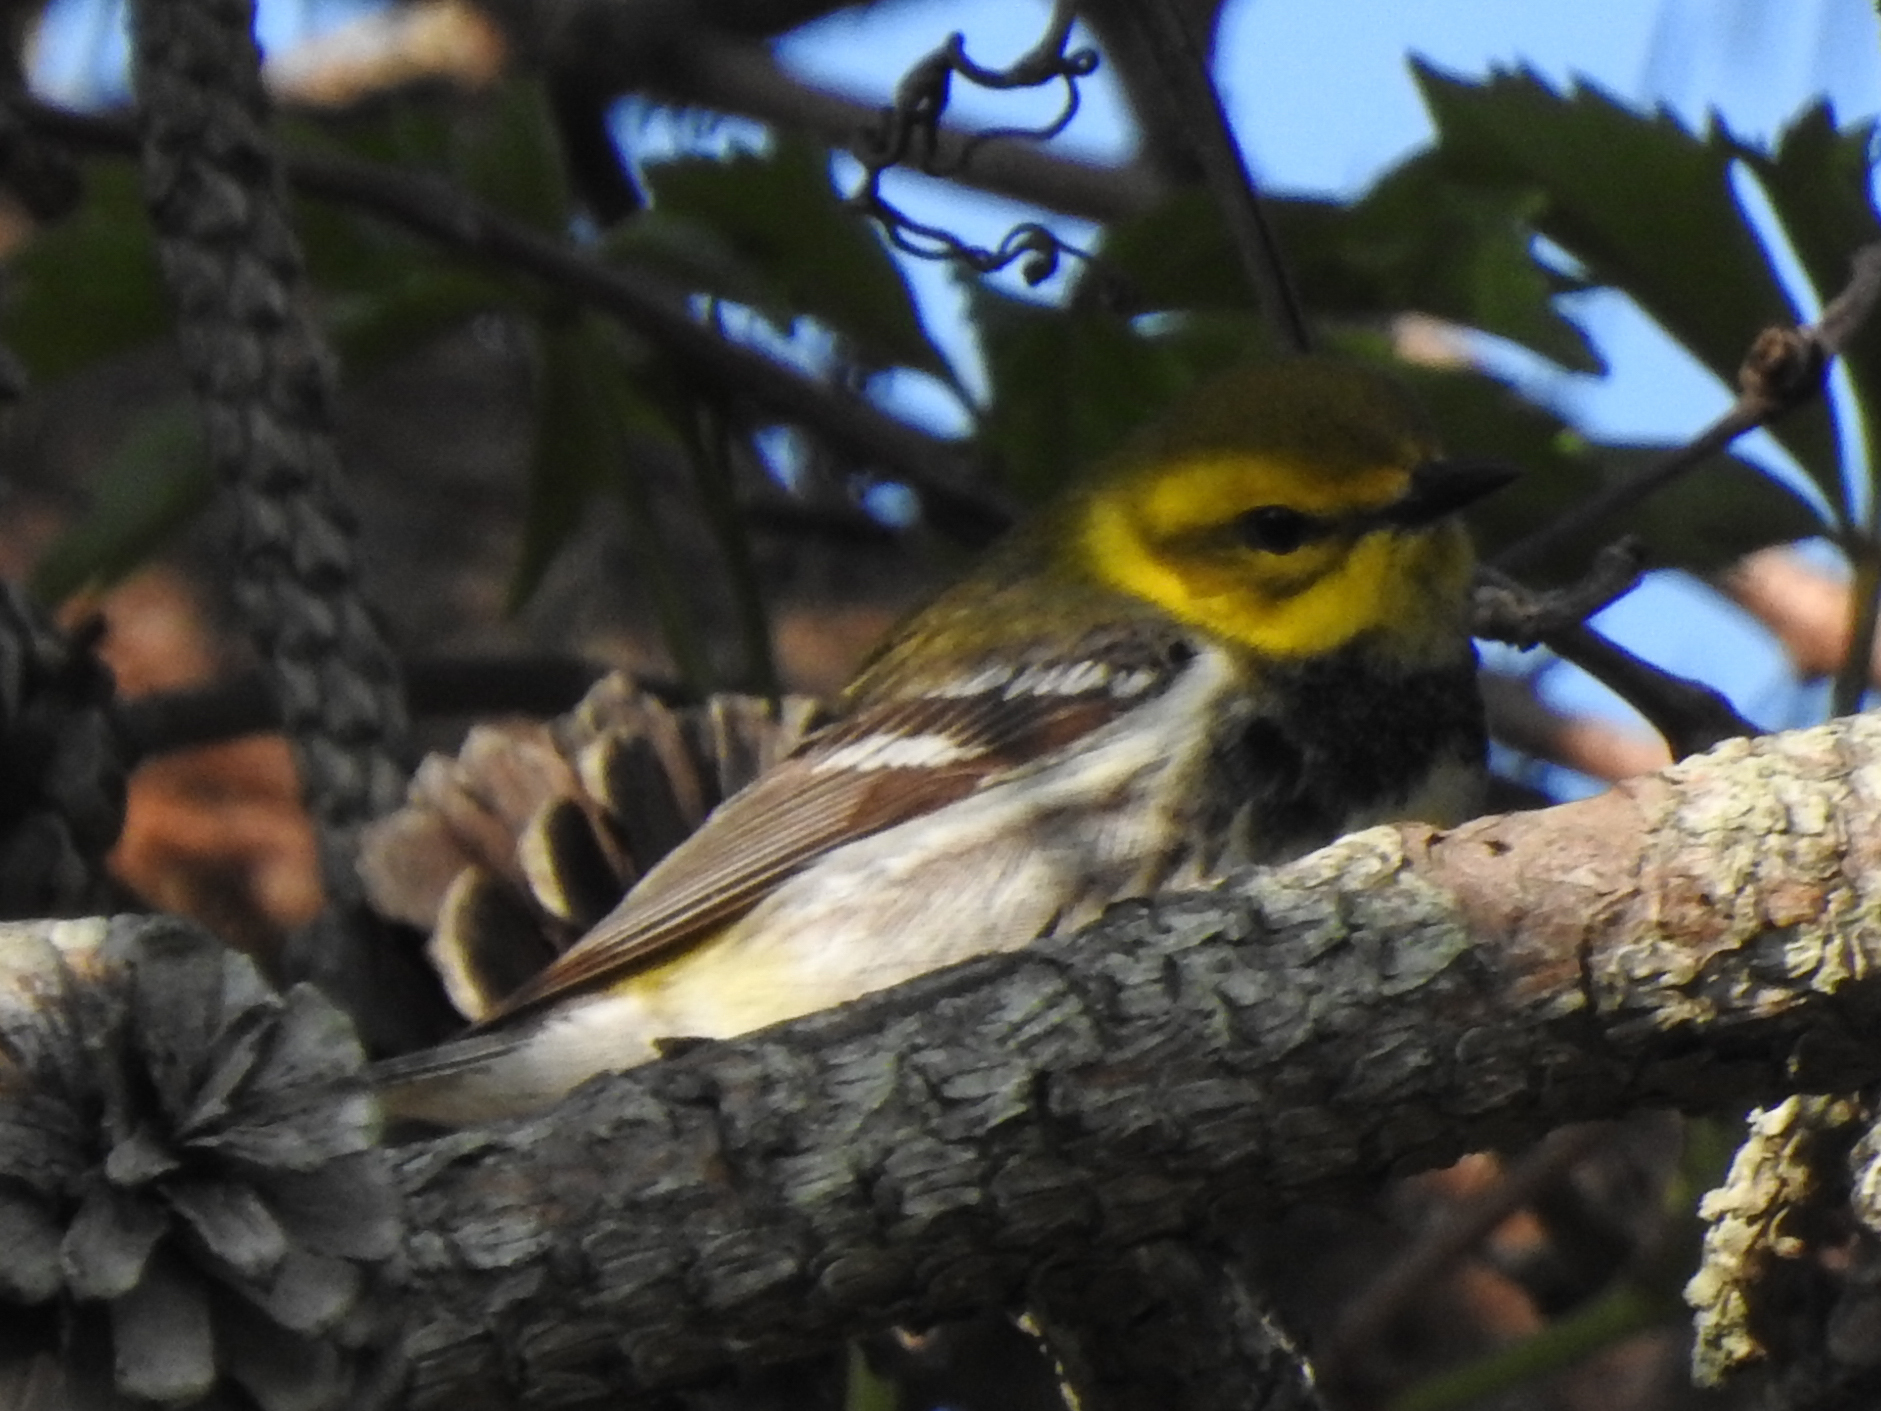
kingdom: Animalia
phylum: Chordata
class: Aves
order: Passeriformes
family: Parulidae
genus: Setophaga
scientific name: Setophaga virens
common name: Black-throated green warbler
